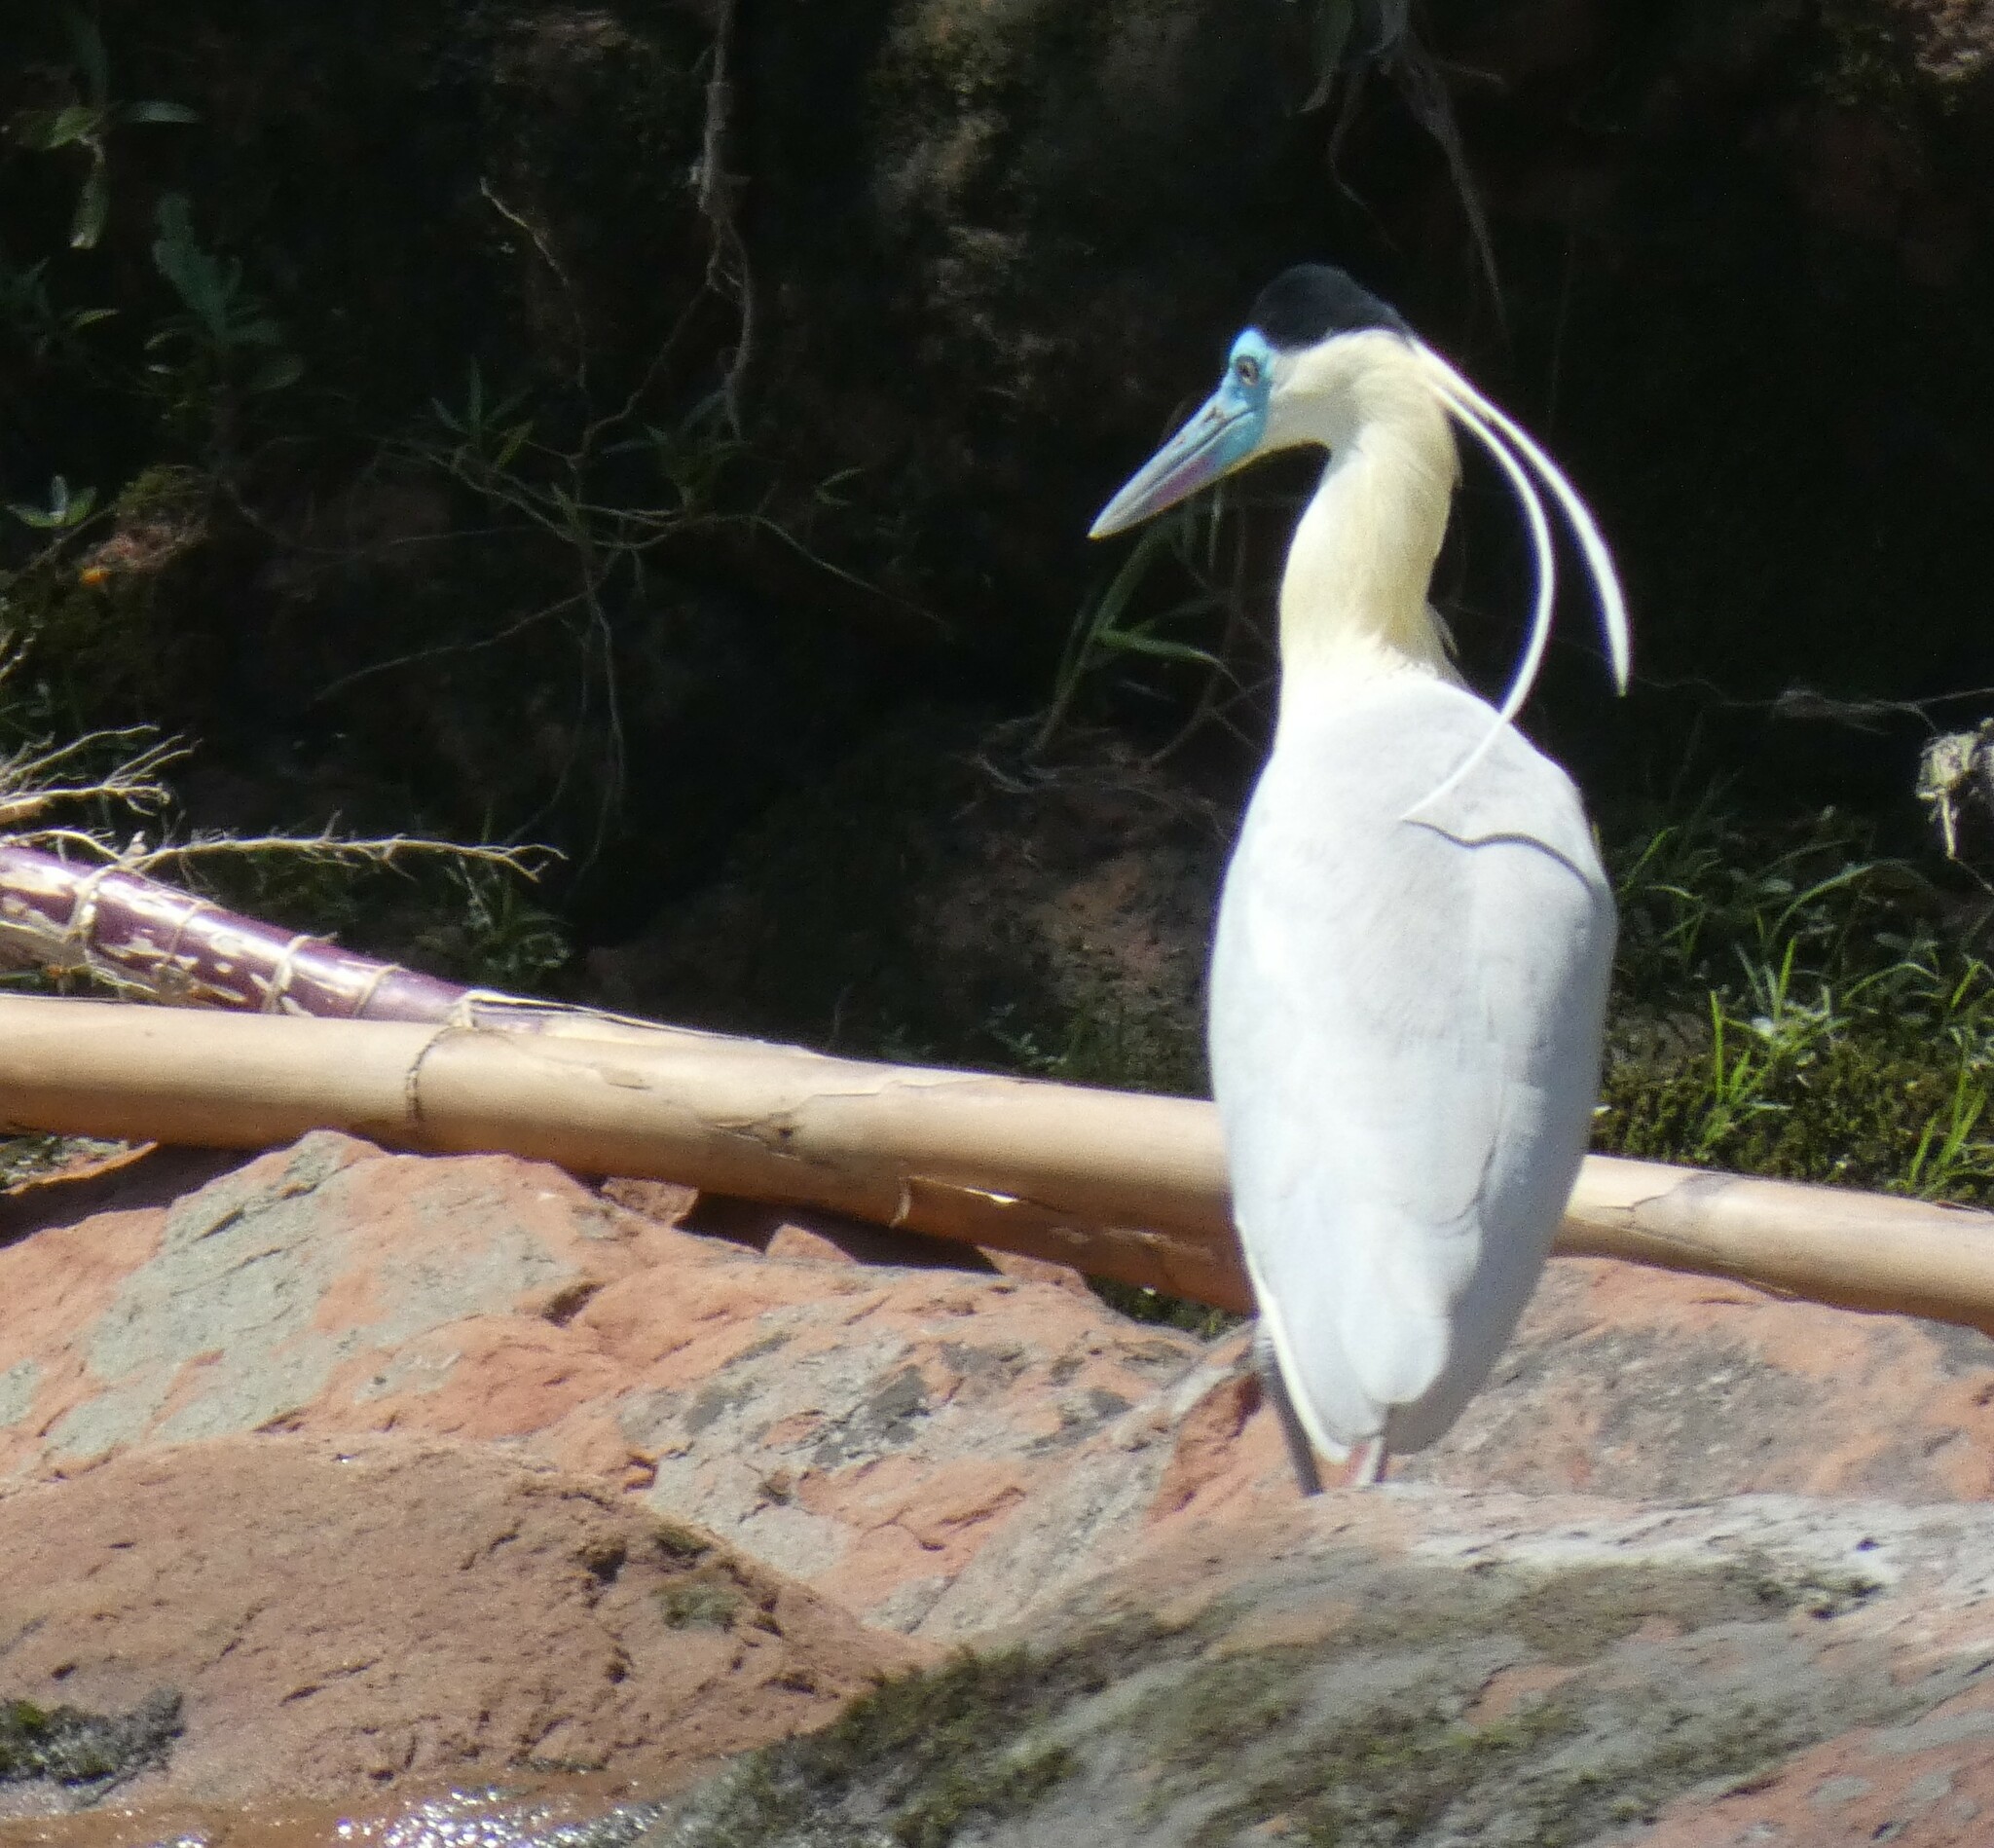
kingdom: Animalia
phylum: Chordata
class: Aves
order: Pelecaniformes
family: Ardeidae
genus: Pilherodius
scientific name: Pilherodius pileatus
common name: Capped heron
